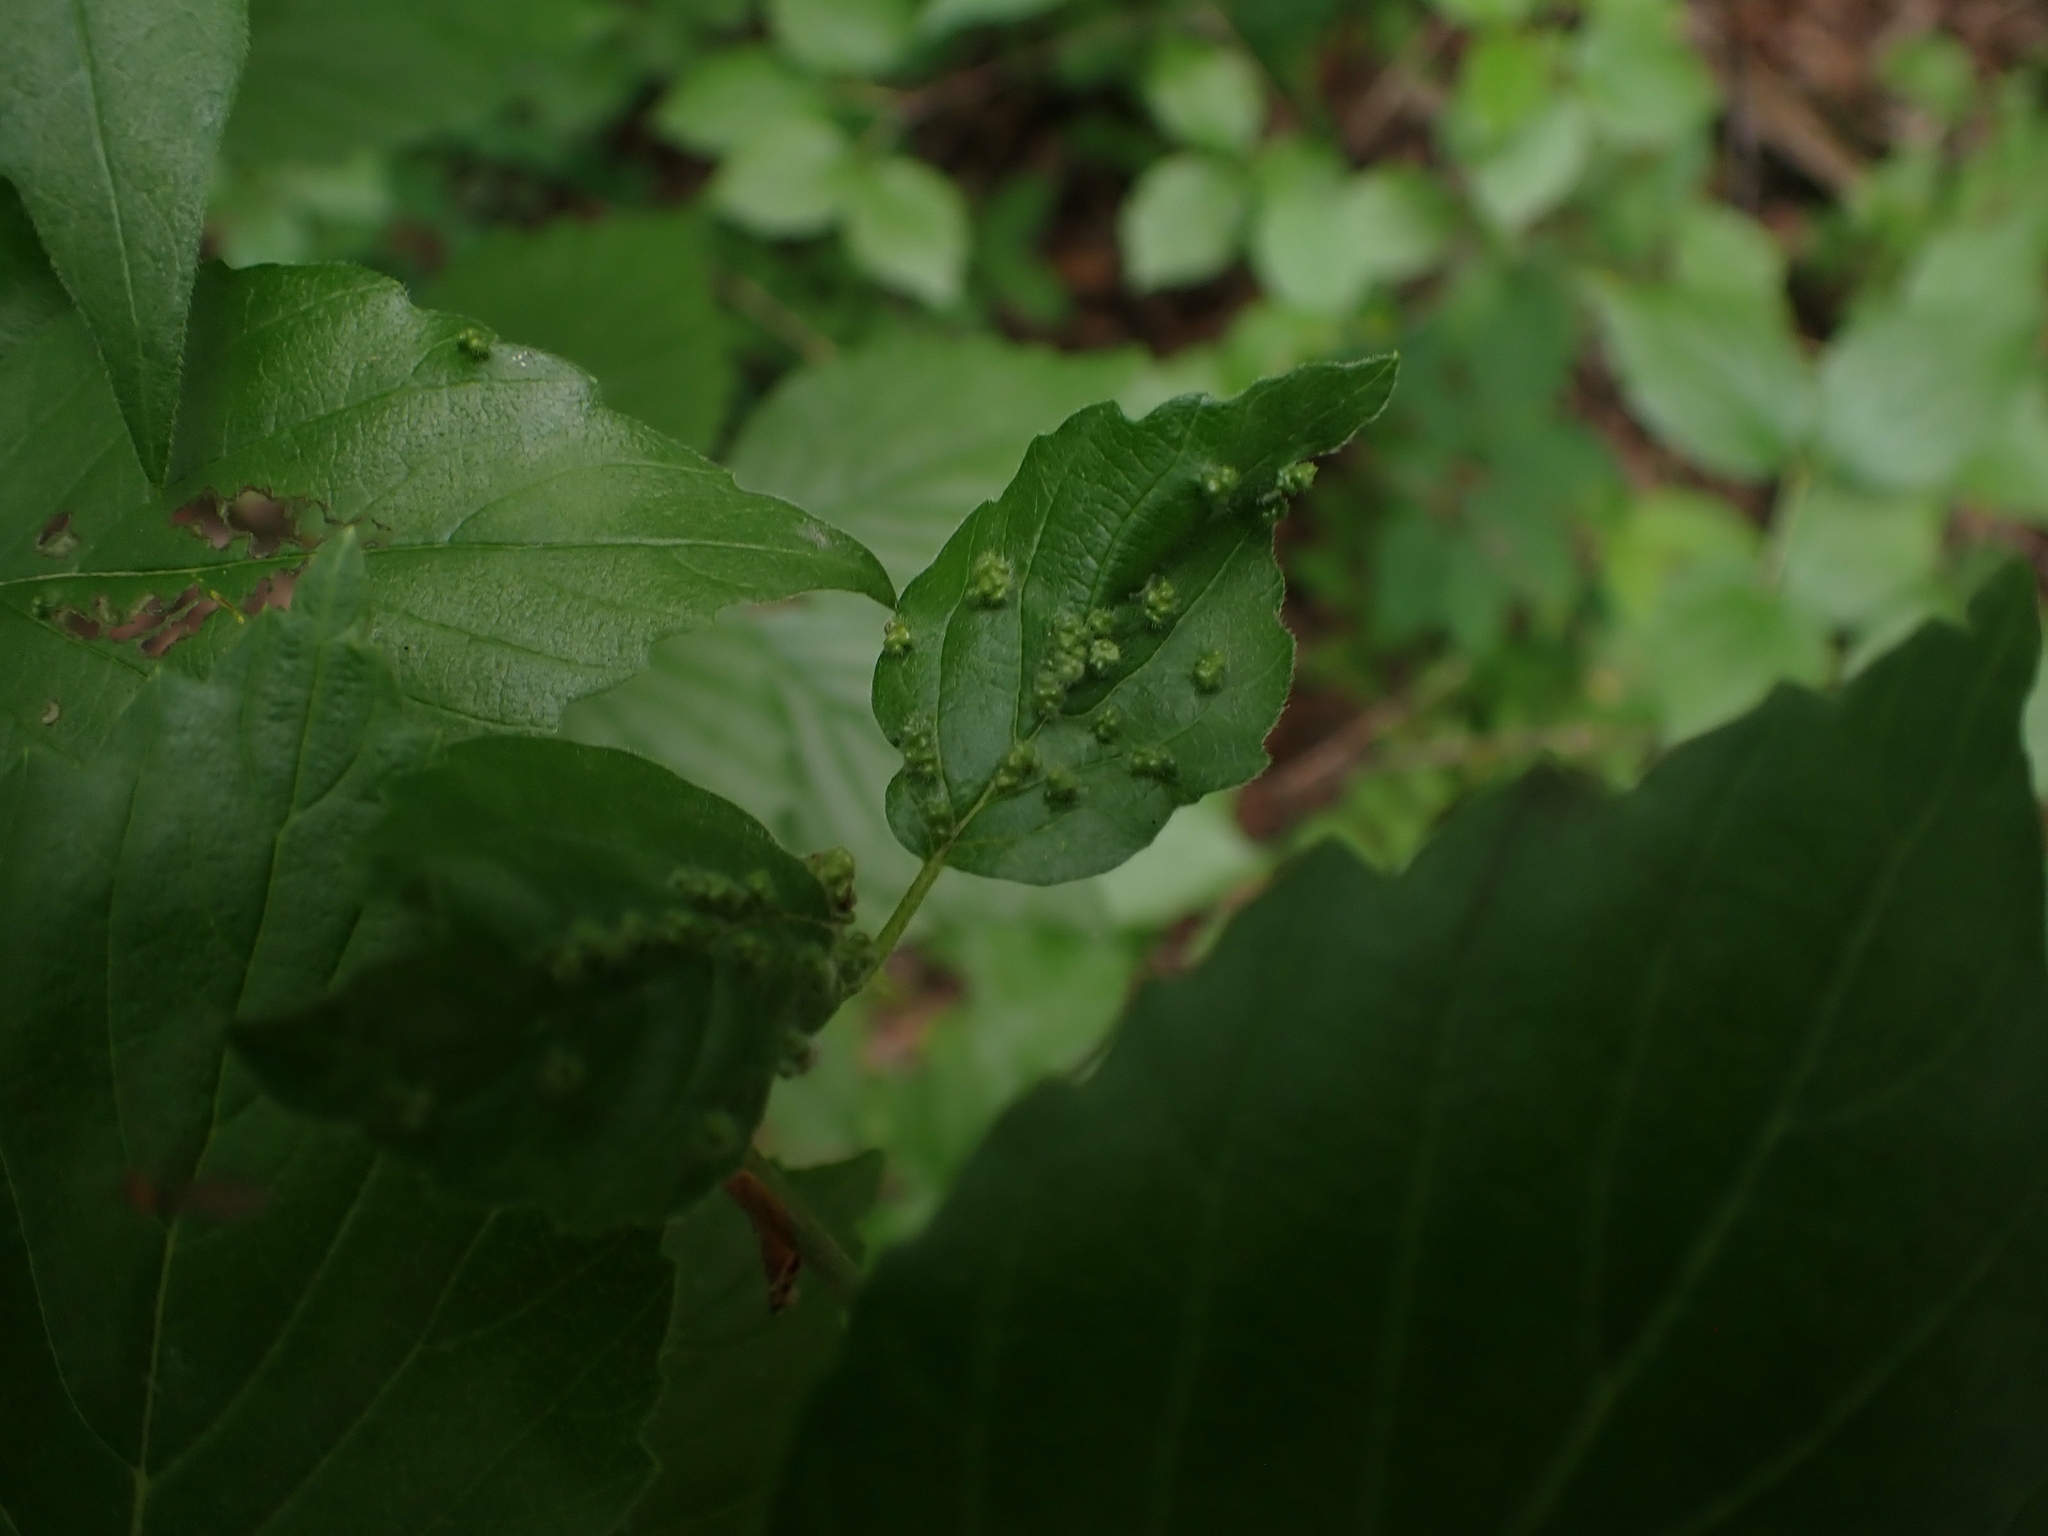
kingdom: Animalia
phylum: Arthropoda
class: Arachnida
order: Trombidiformes
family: Eriophyidae
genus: Eriophyes
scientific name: Eriophyes
